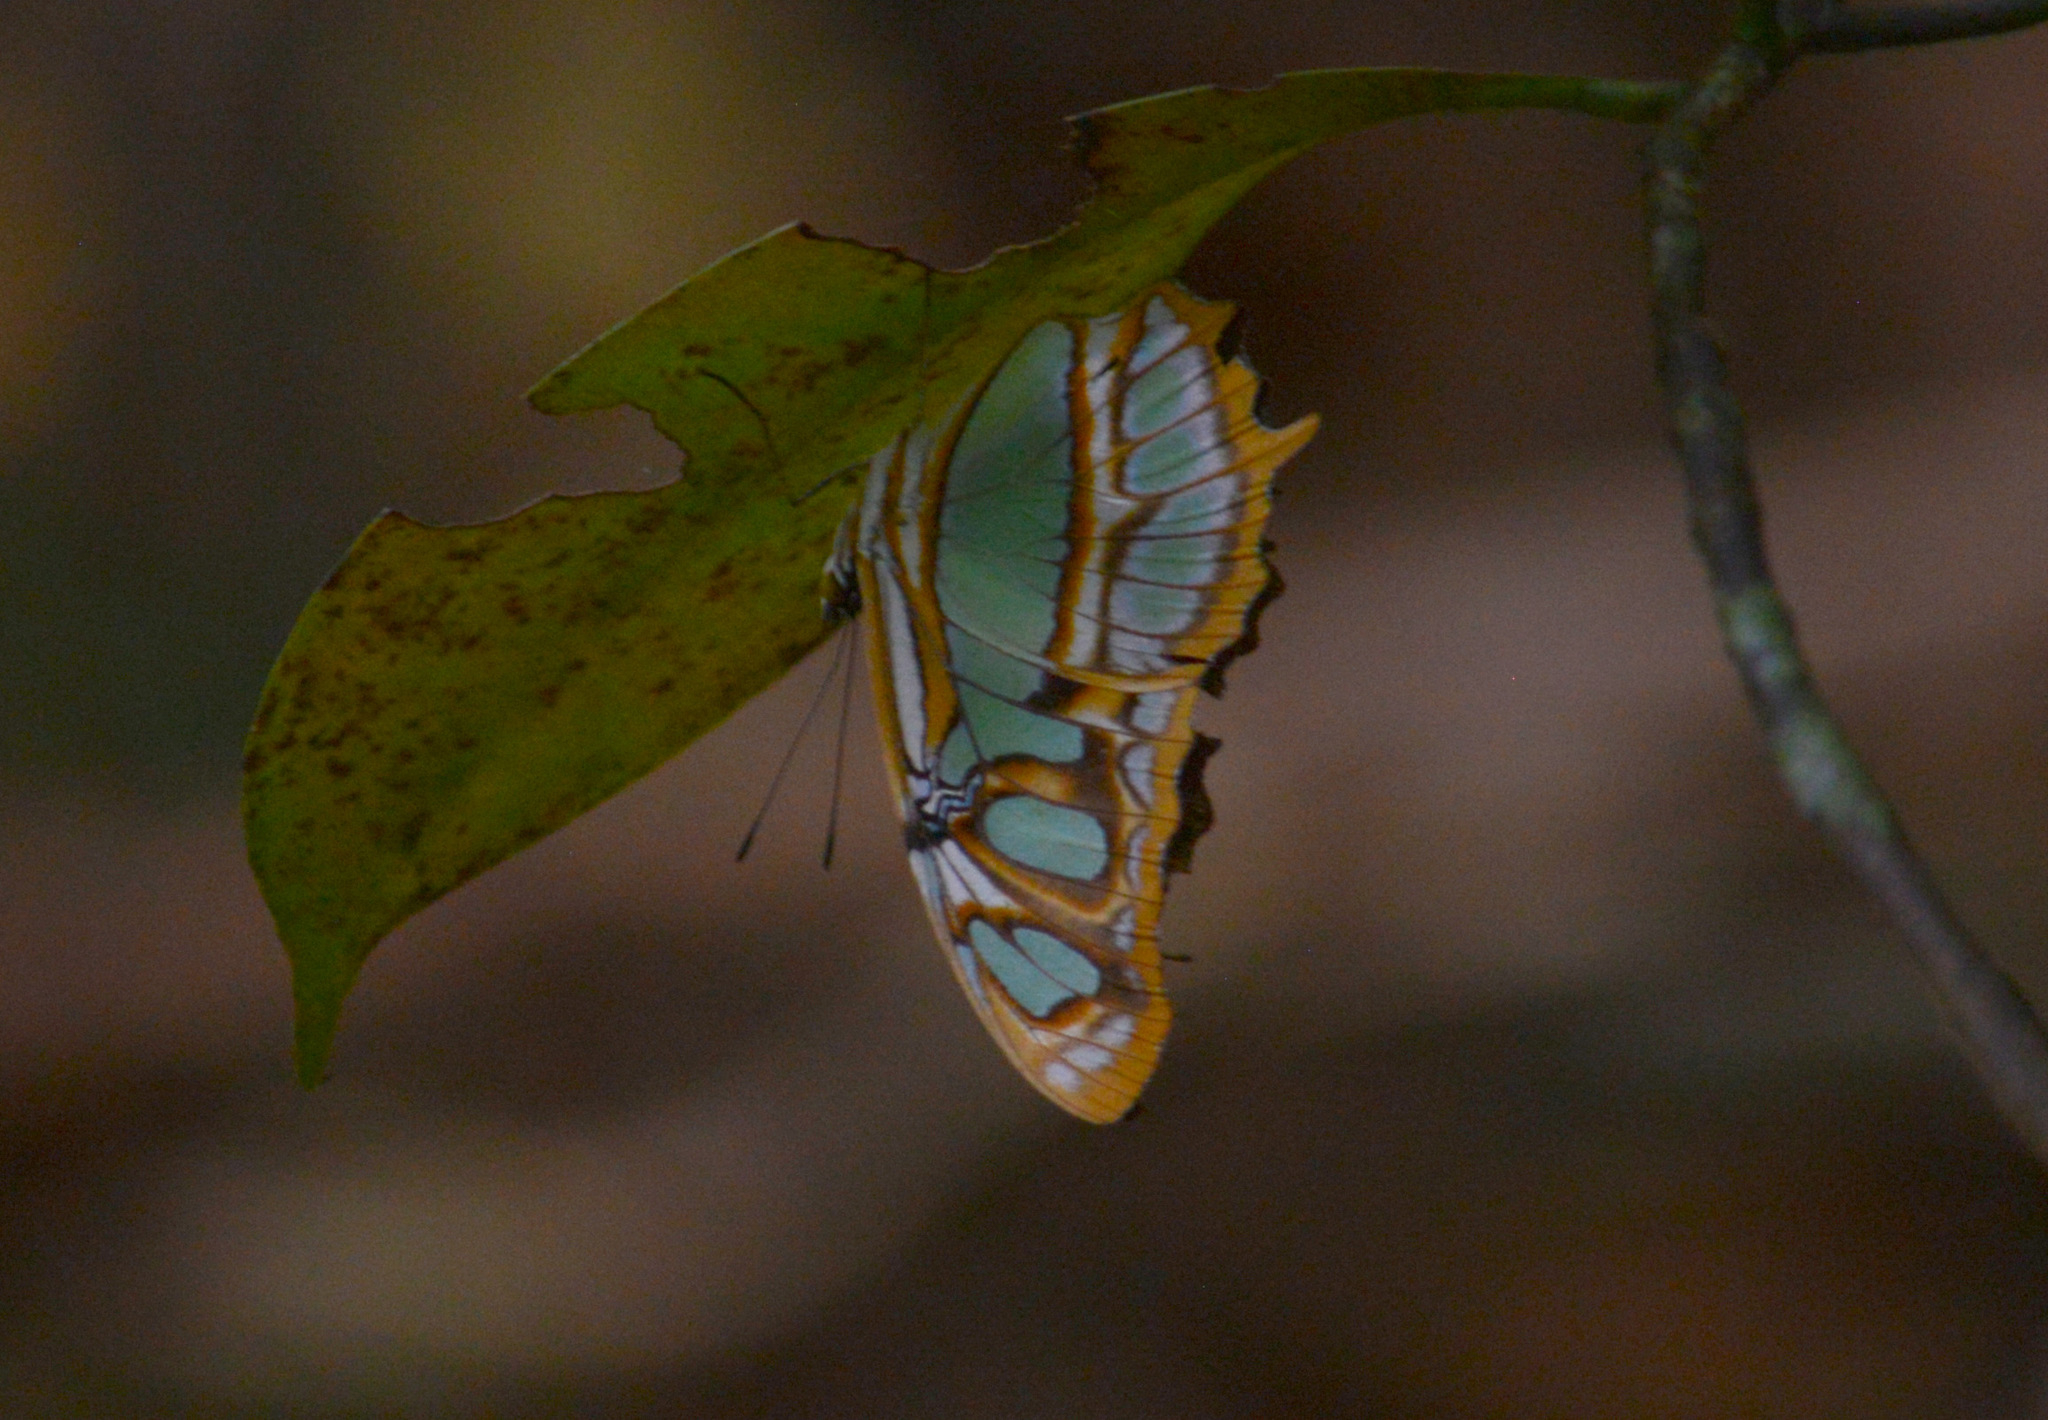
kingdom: Animalia
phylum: Arthropoda
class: Insecta
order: Lepidoptera
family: Nymphalidae
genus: Siproeta
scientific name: Siproeta stelenes
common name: Malachite
